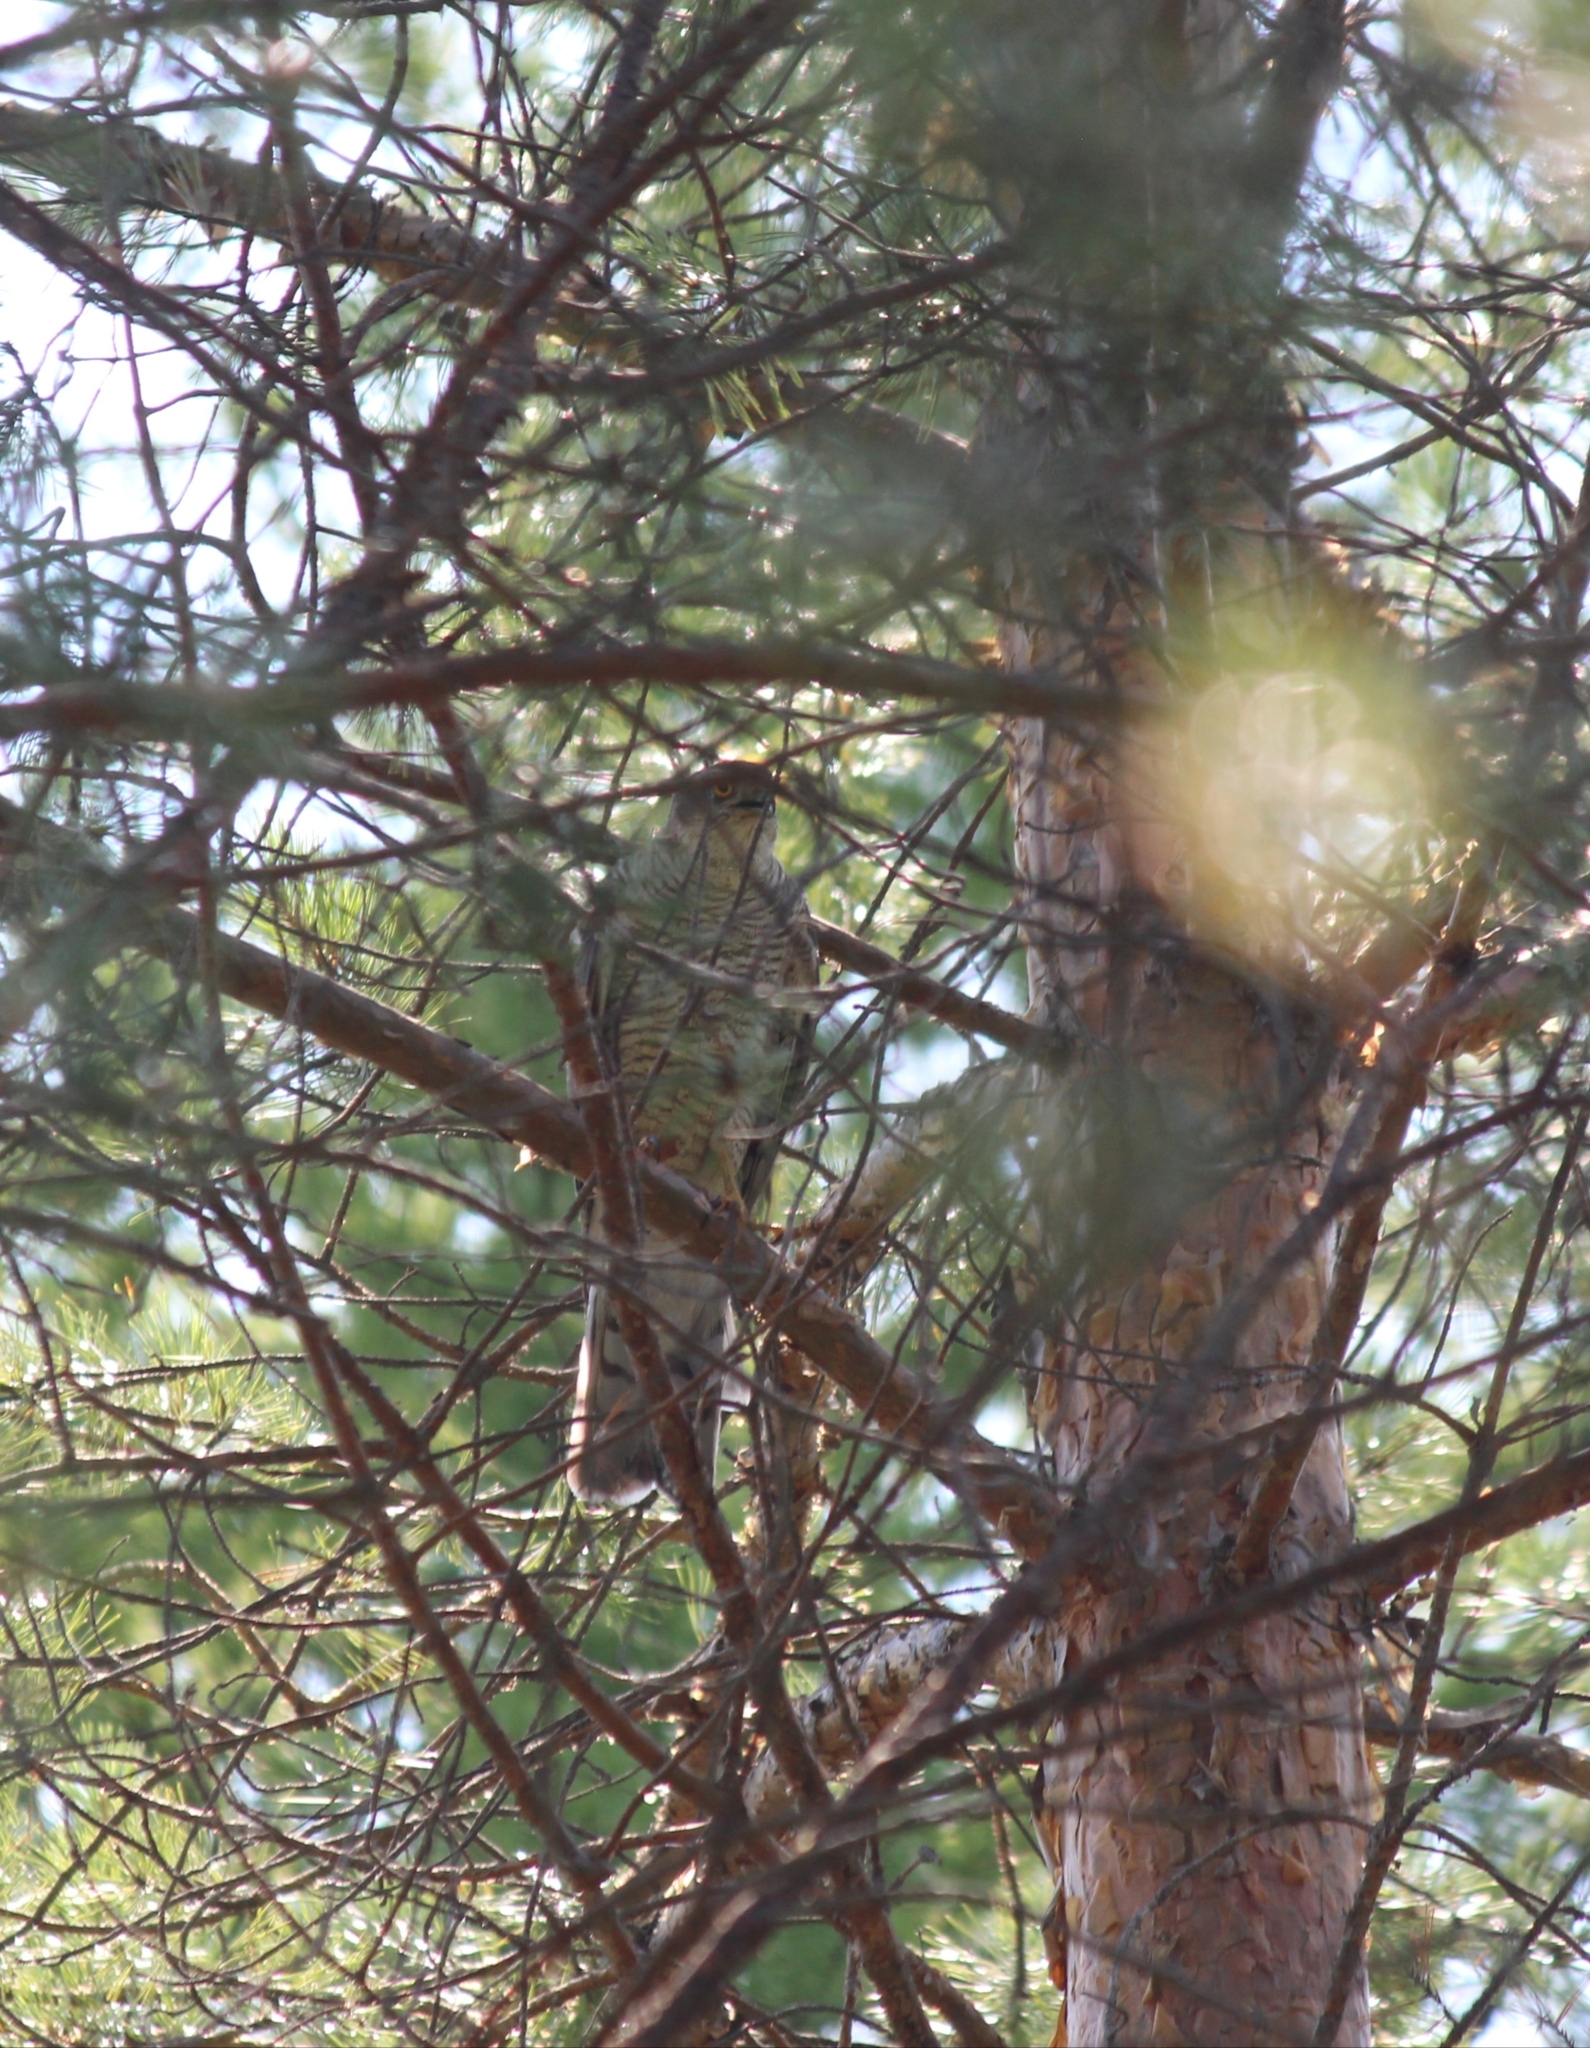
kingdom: Animalia
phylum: Chordata
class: Aves
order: Accipitriformes
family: Accipitridae
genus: Accipiter
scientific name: Accipiter nisus
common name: Eurasian sparrowhawk
